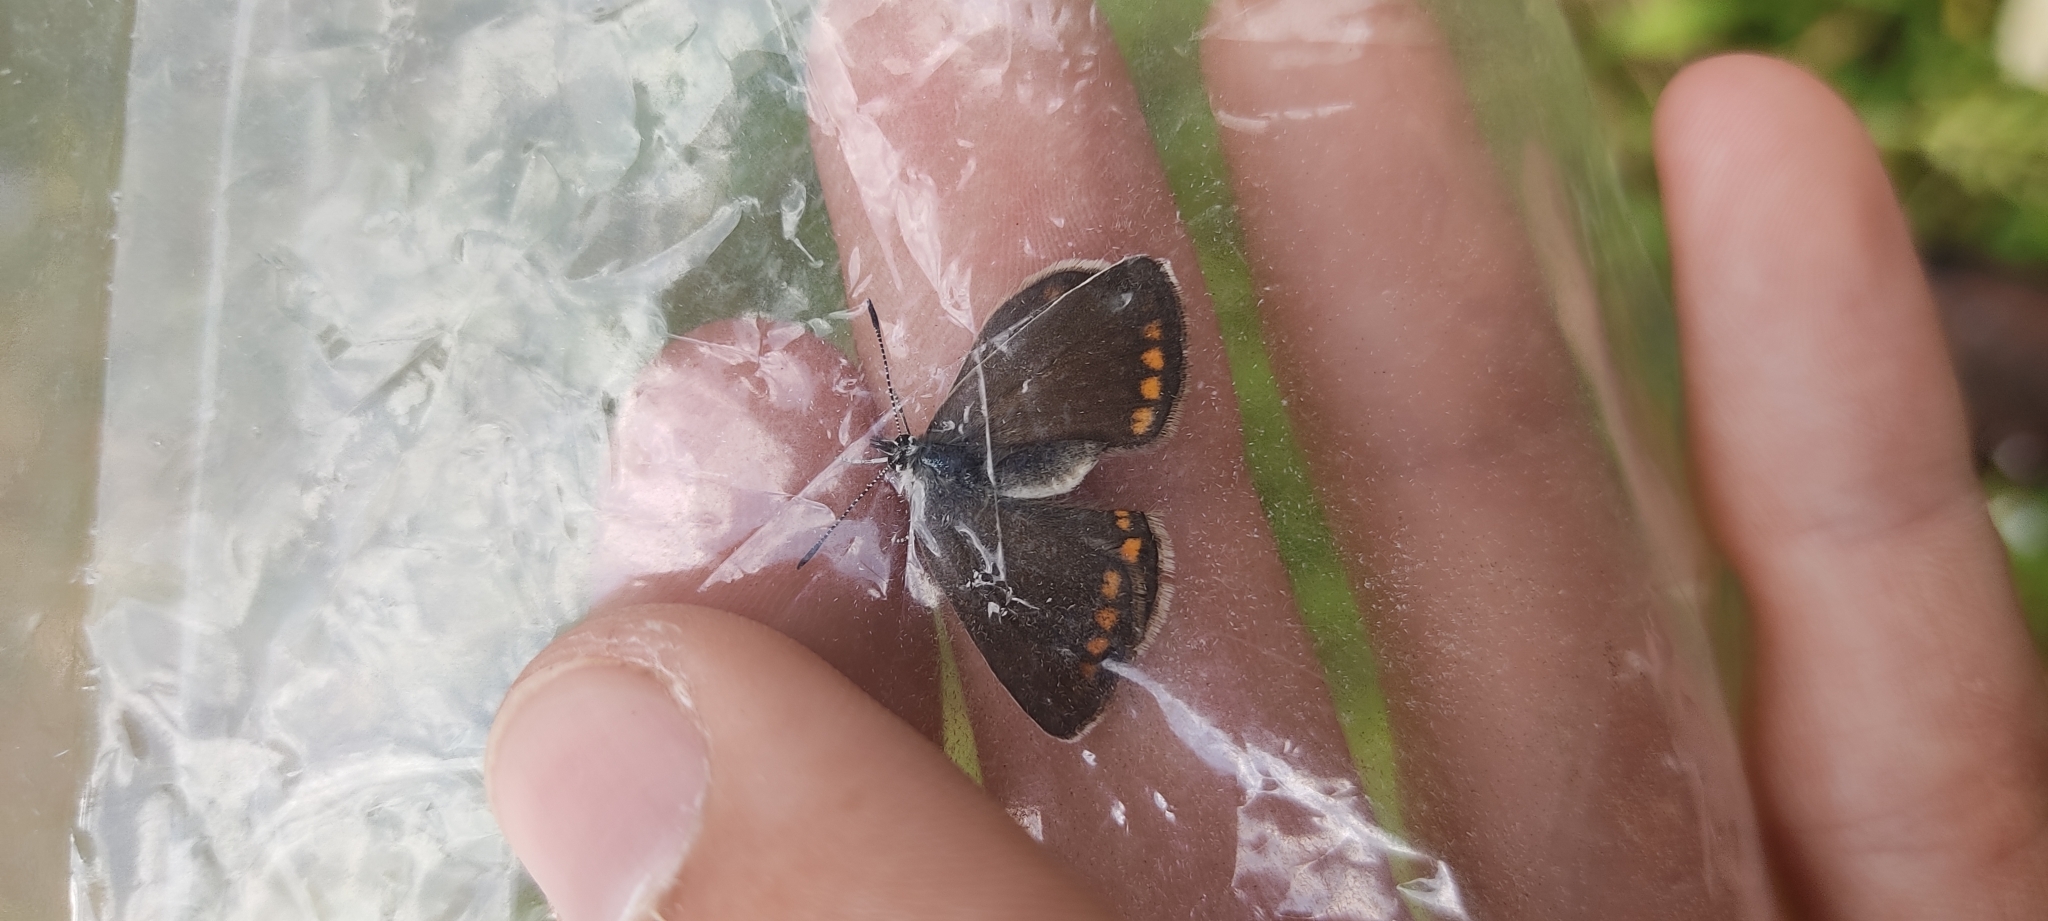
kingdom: Animalia
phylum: Arthropoda
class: Insecta
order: Lepidoptera
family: Lycaenidae
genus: Polyommatus
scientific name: Polyommatus icarus
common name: Common blue
